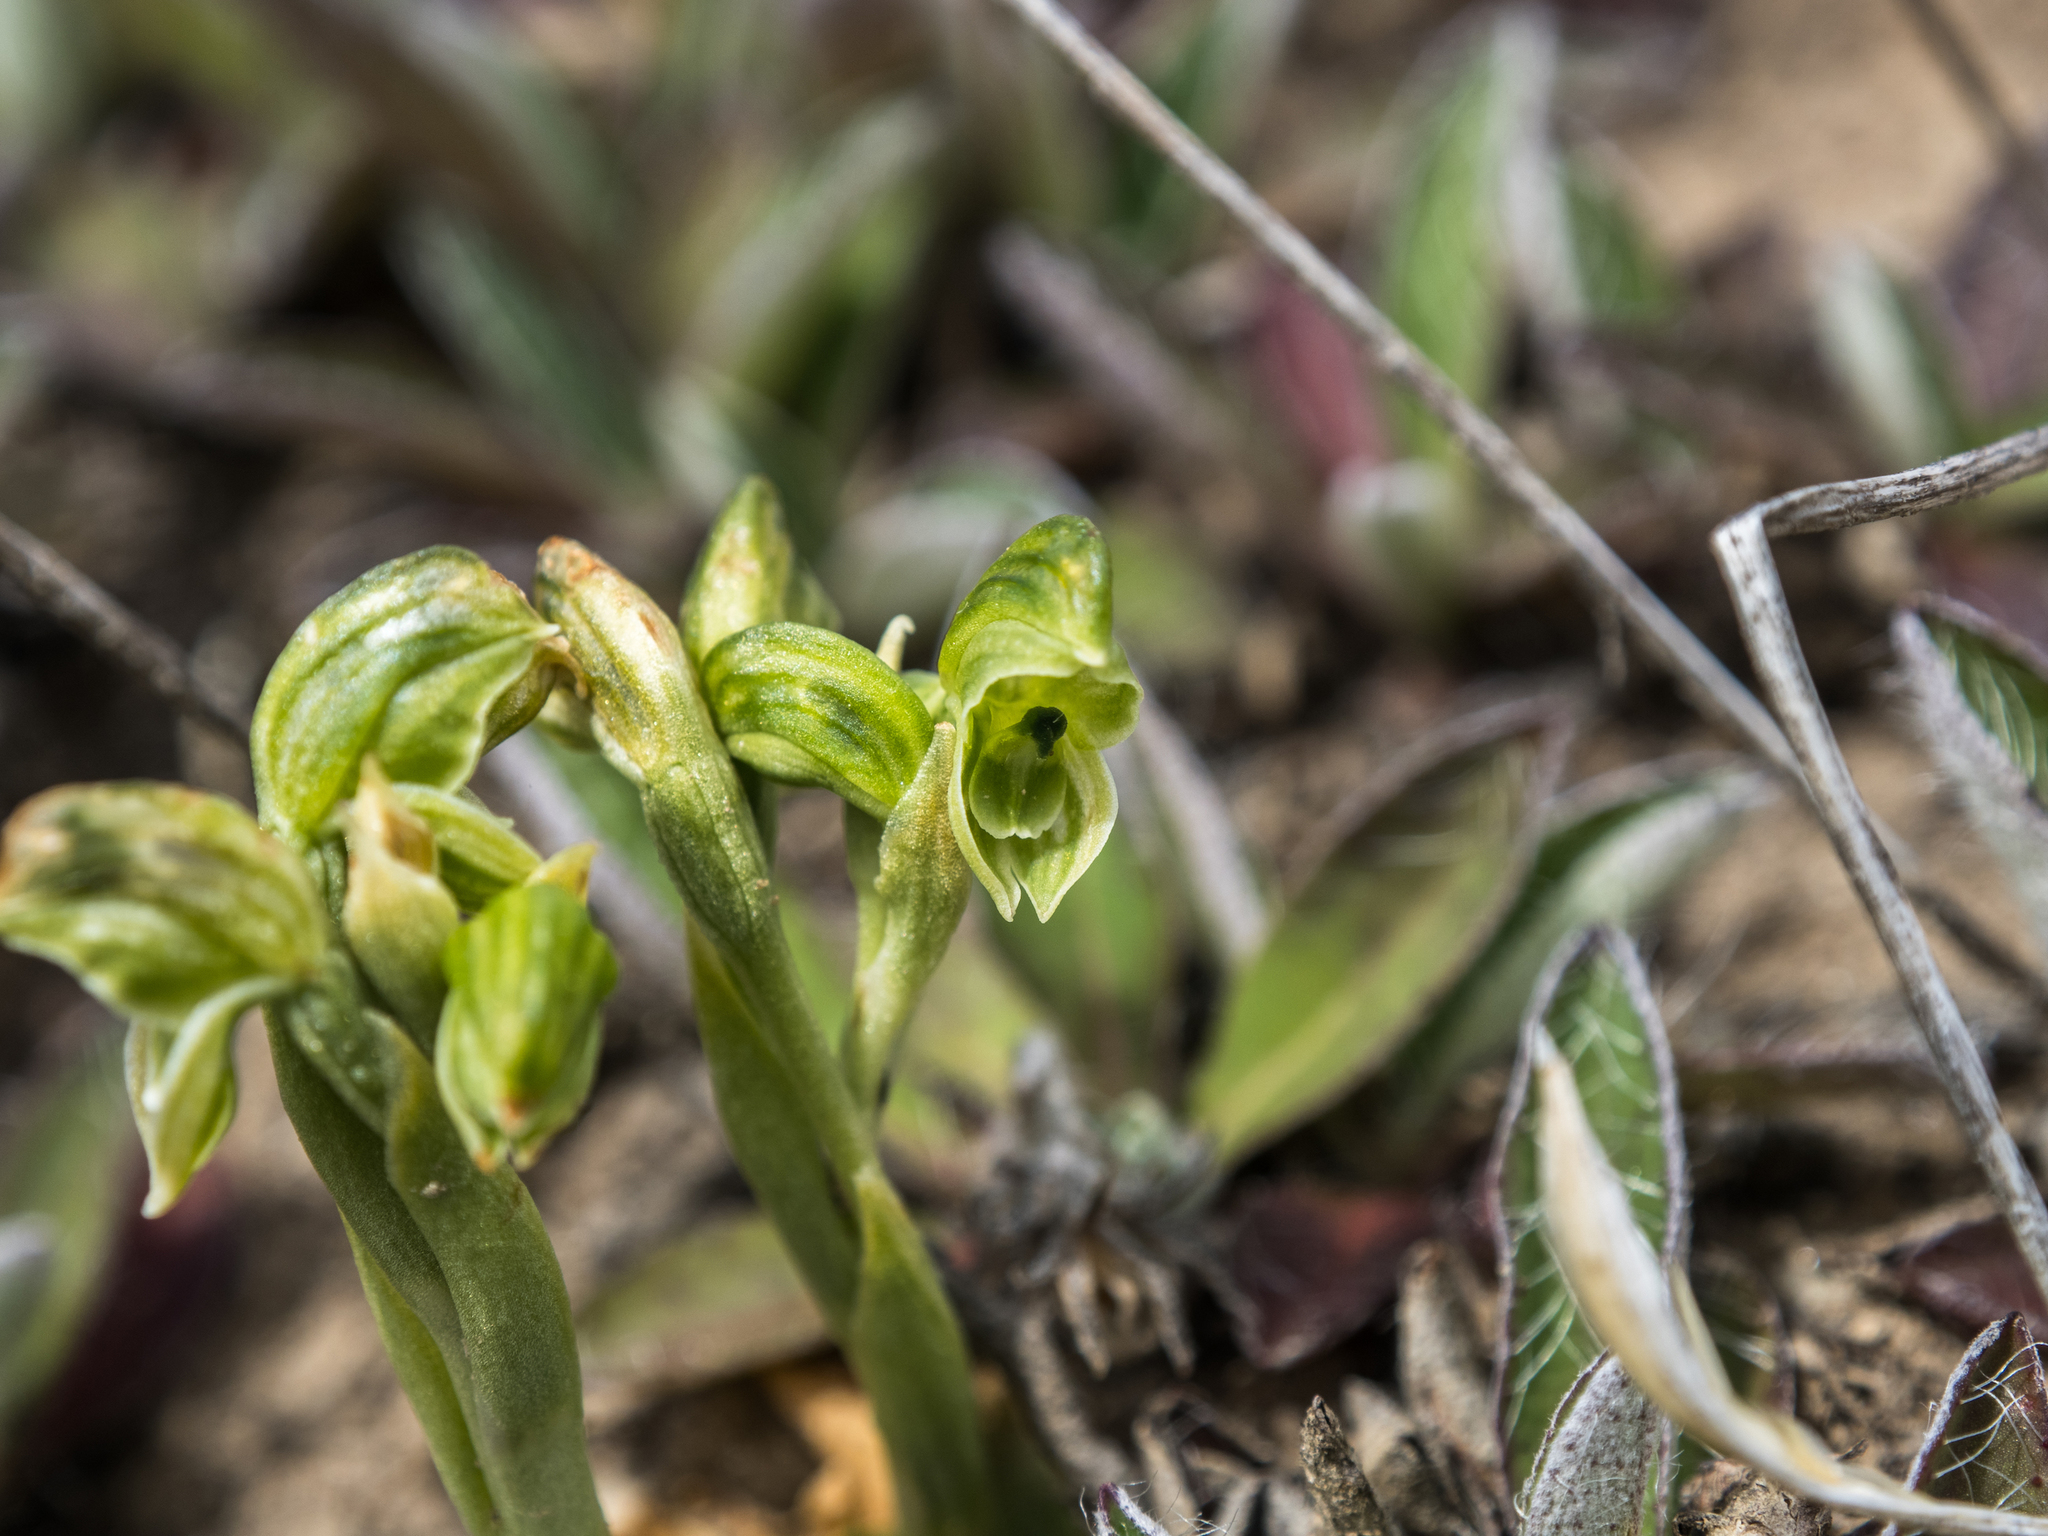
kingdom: Plantae
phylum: Tracheophyta
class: Liliopsida
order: Asparagales
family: Orchidaceae
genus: Pterostylis
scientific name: Pterostylis tanypoda
